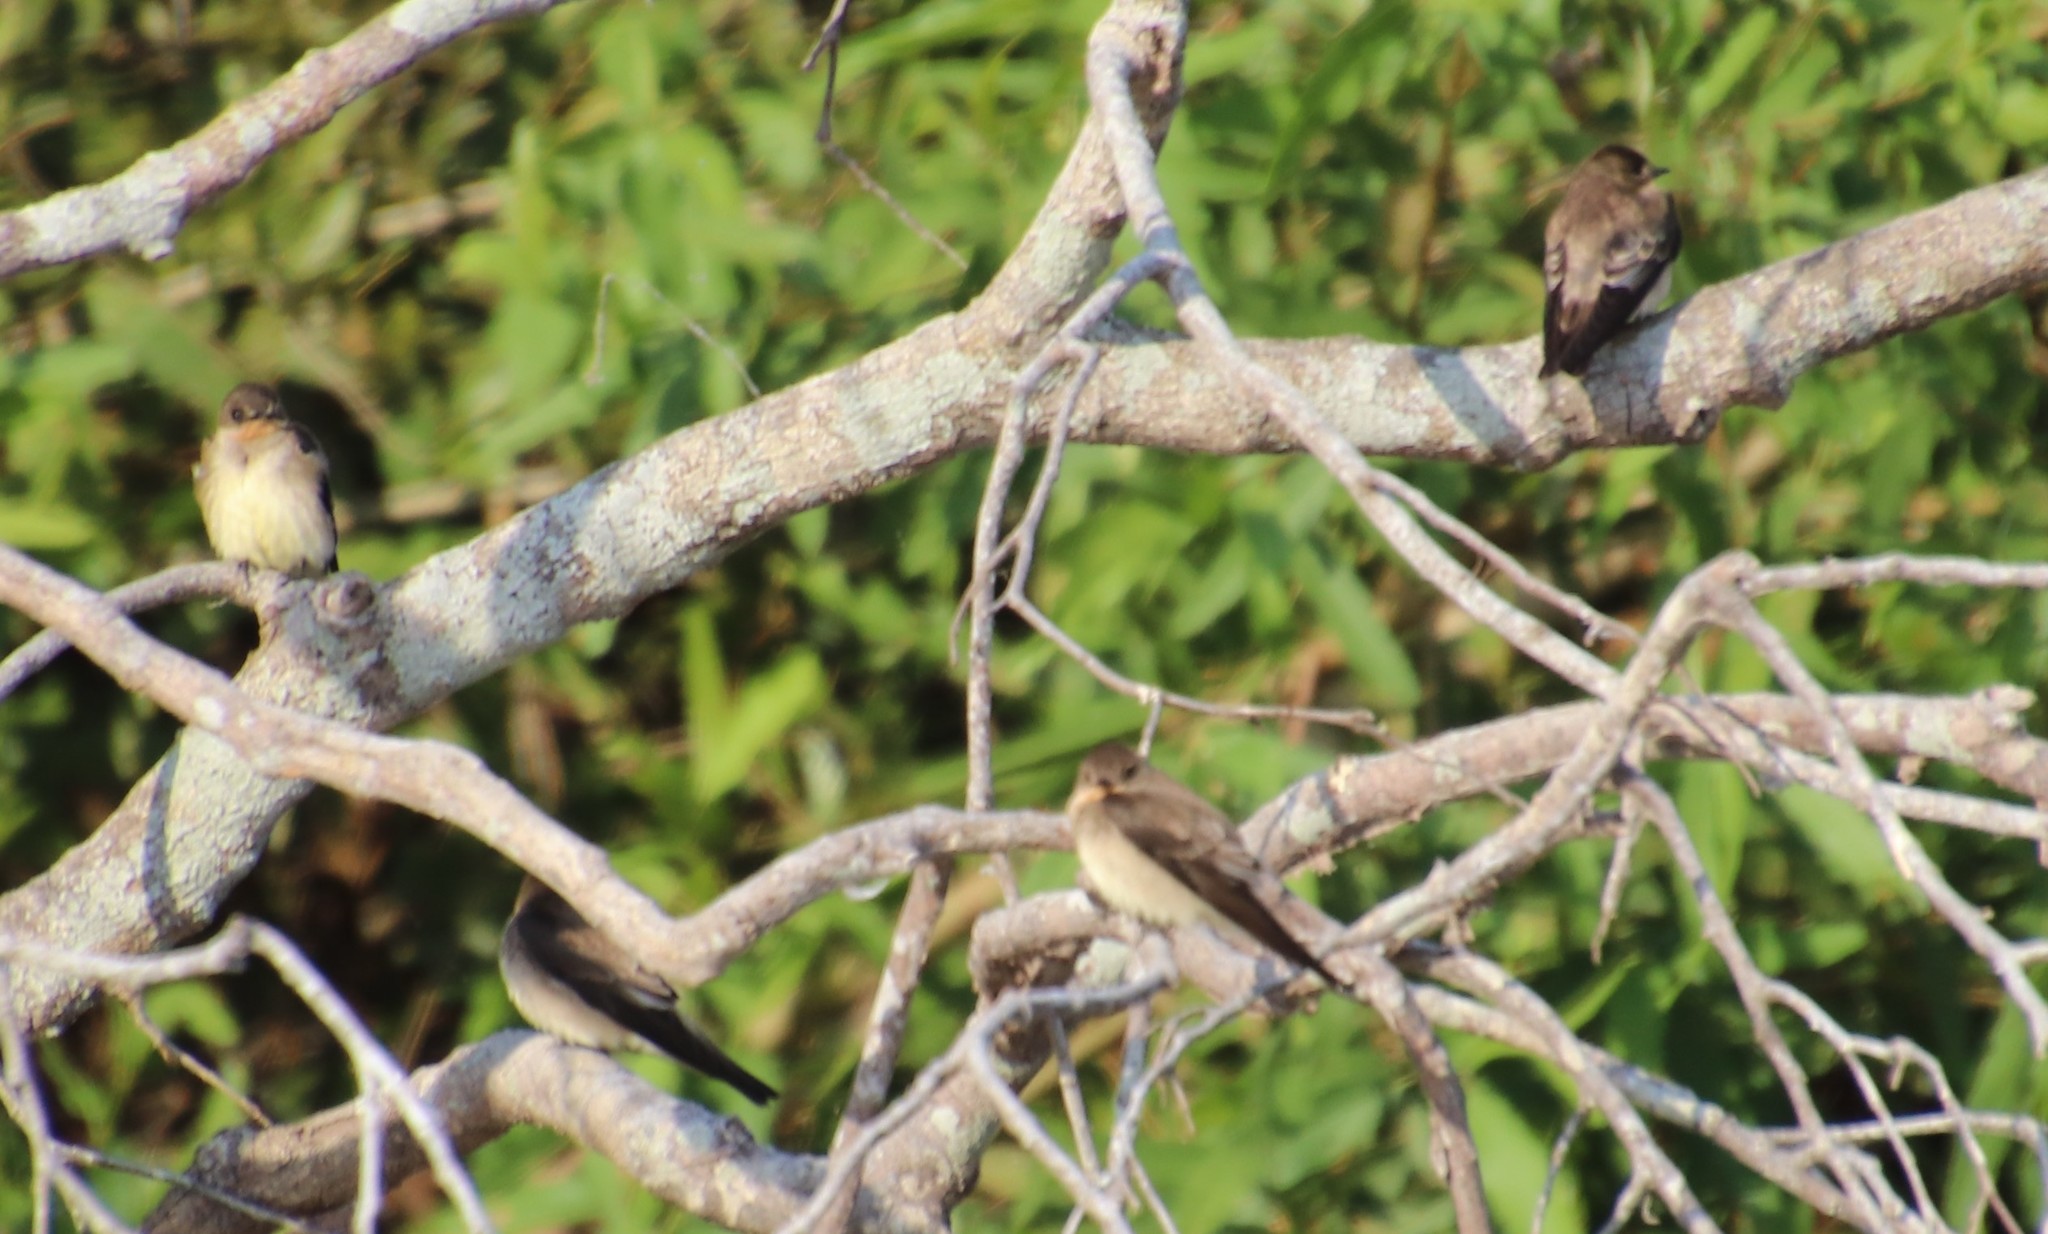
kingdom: Animalia
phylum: Chordata
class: Aves
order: Passeriformes
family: Hirundinidae
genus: Stelgidopteryx
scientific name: Stelgidopteryx ruficollis
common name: Southern rough-winged swallow
